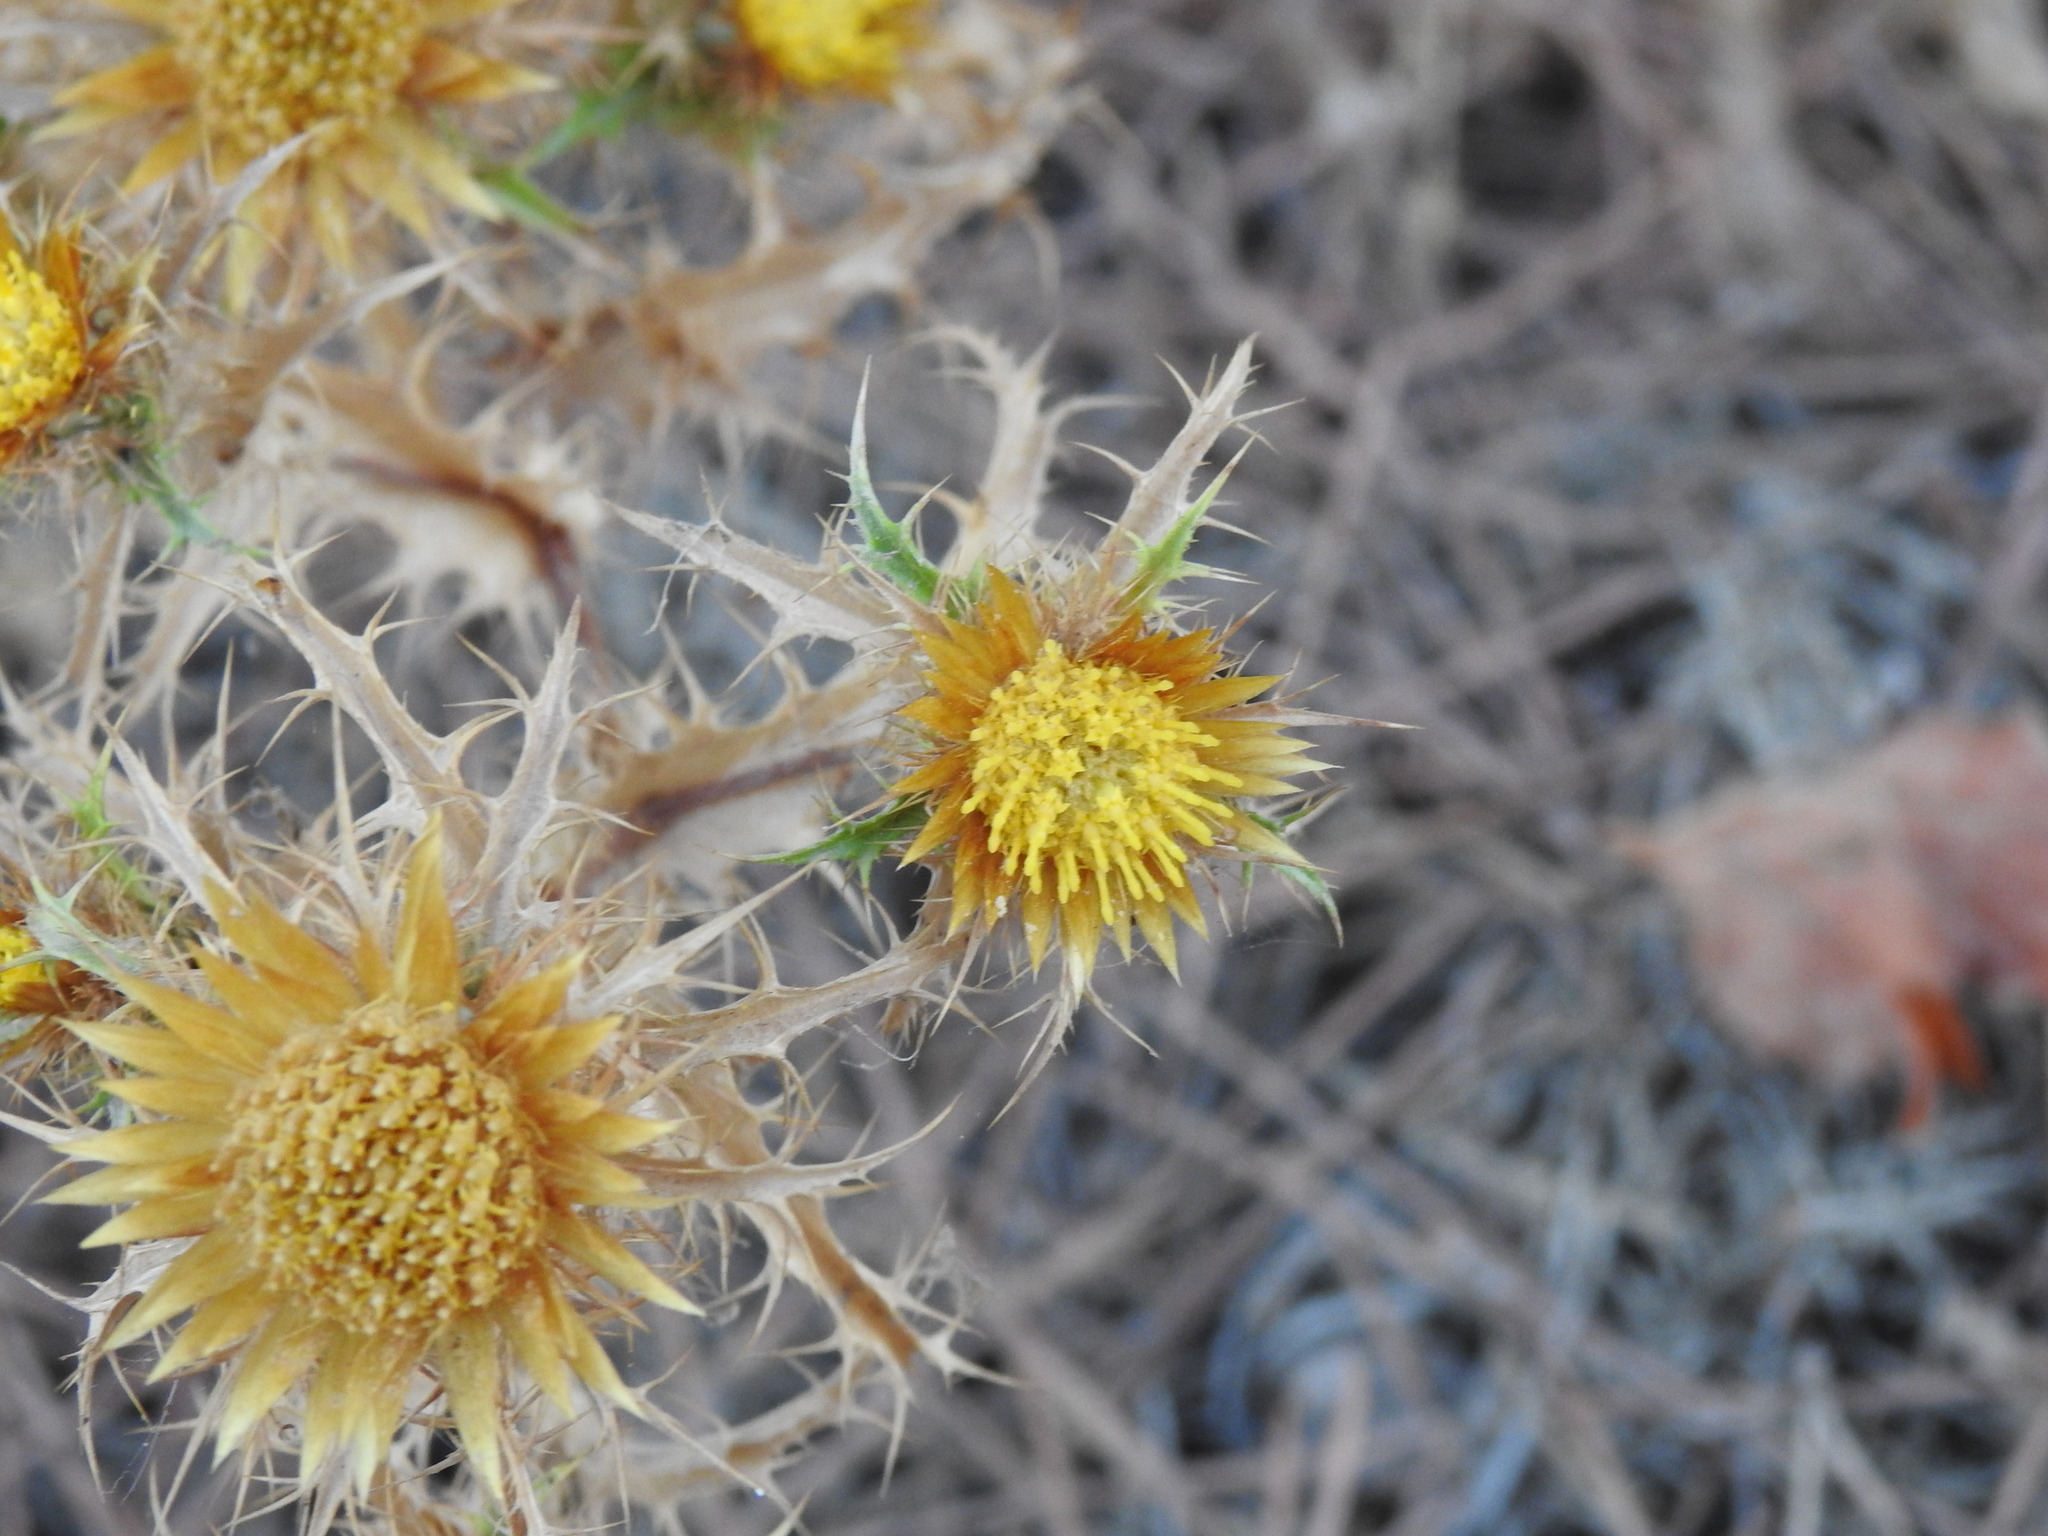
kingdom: Plantae
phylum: Tracheophyta
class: Magnoliopsida
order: Asterales
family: Asteraceae
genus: Carlina
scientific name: Carlina hispanica
